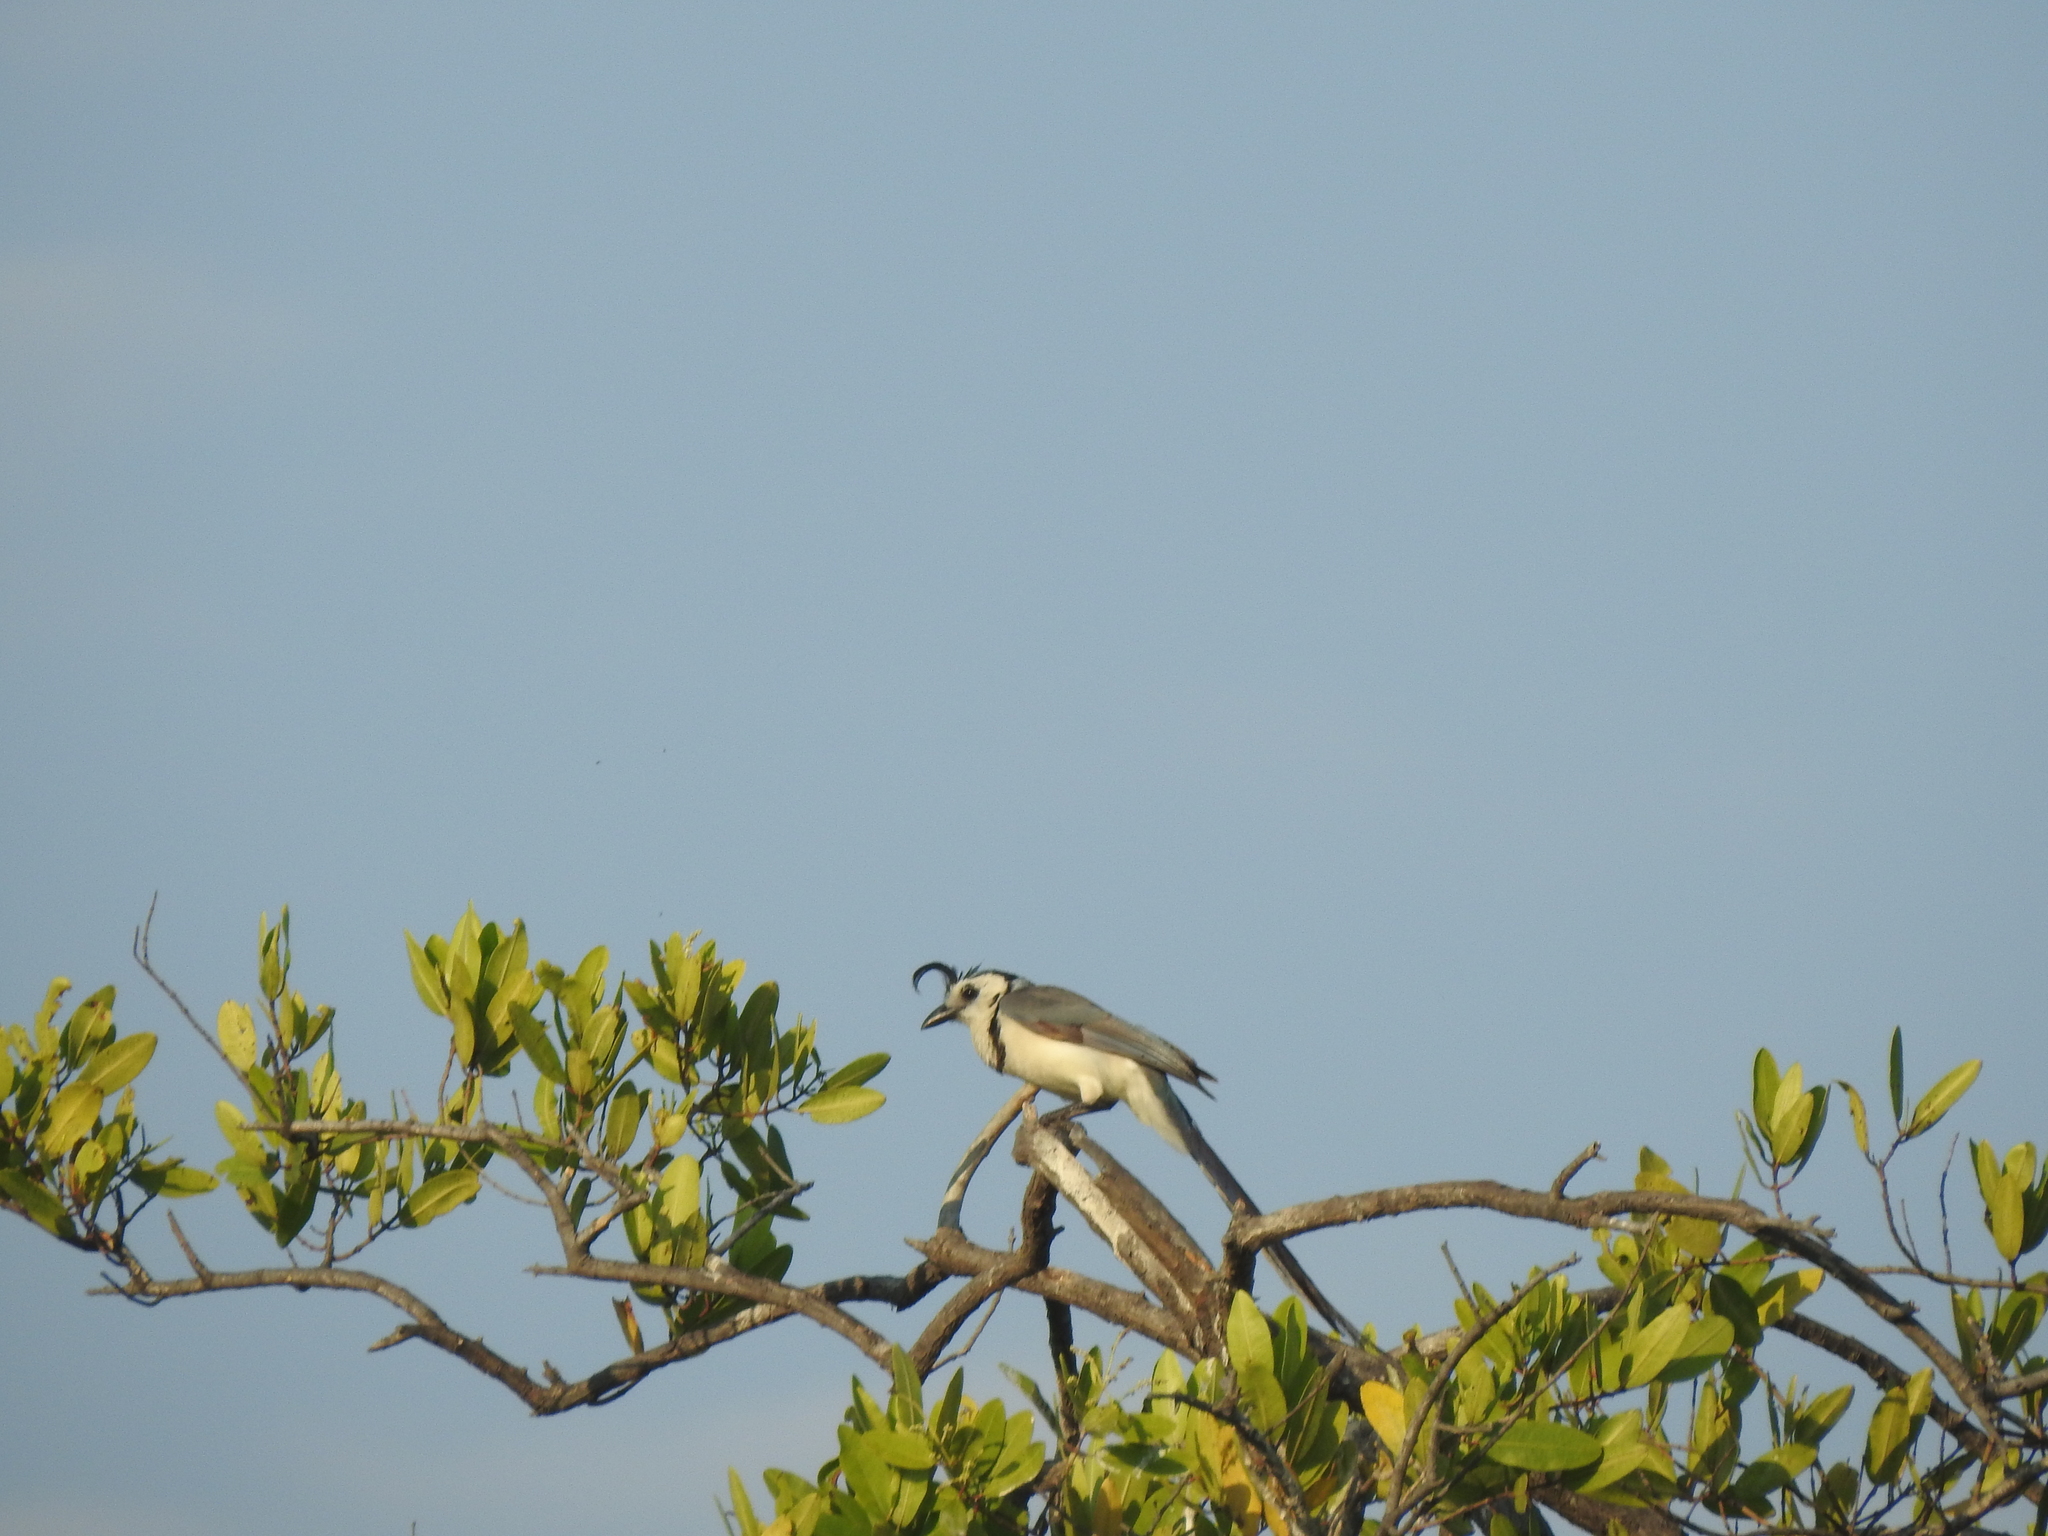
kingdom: Animalia
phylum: Chordata
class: Aves
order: Passeriformes
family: Corvidae
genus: Calocitta
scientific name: Calocitta formosa
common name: White-throated magpie-jay
